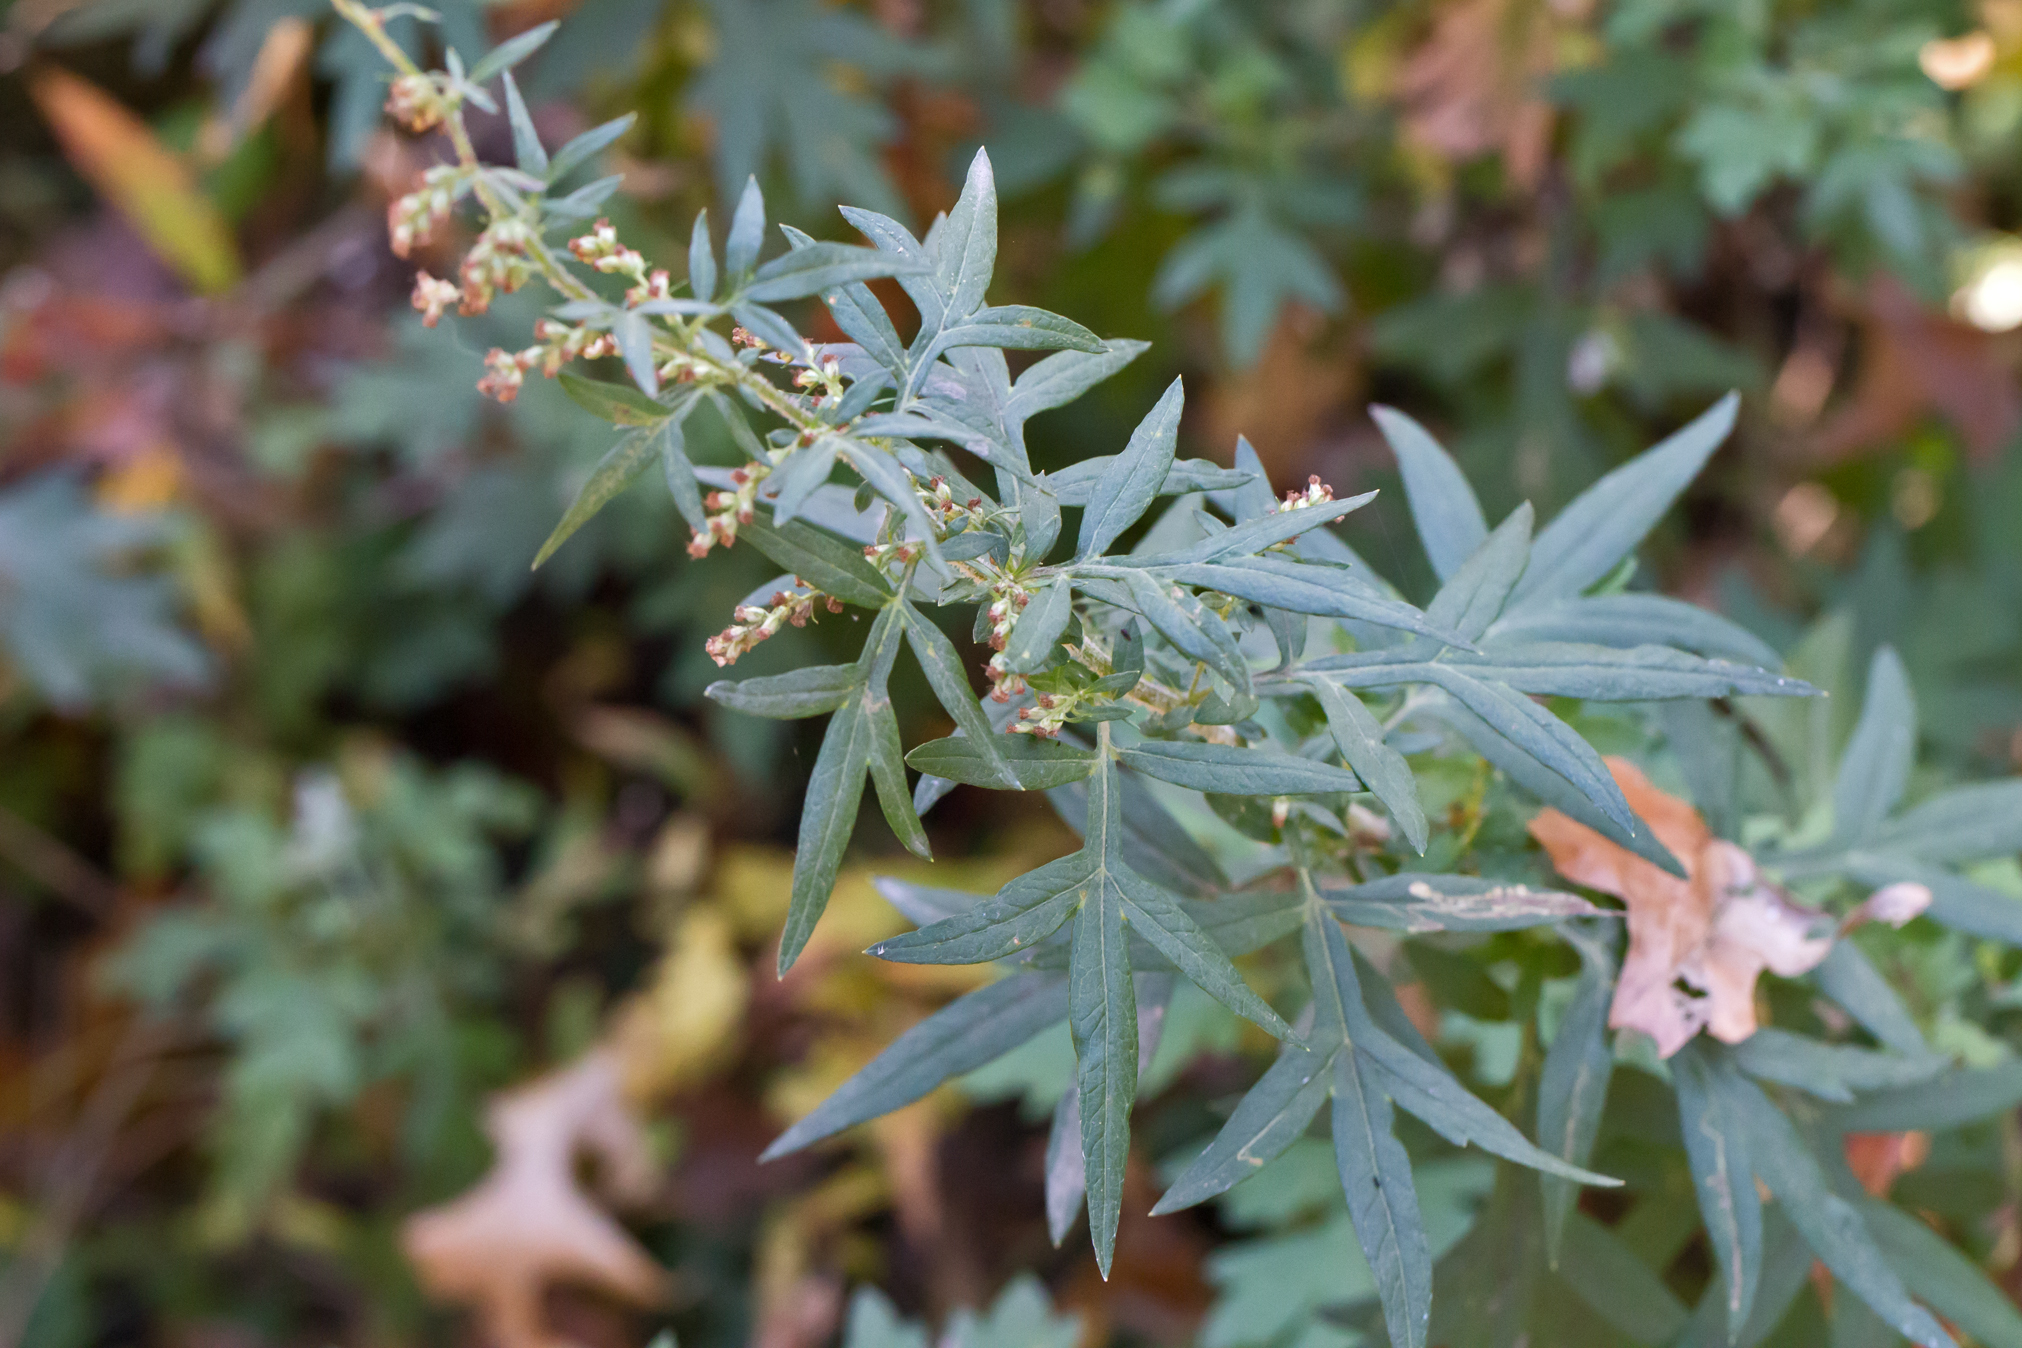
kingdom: Plantae
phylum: Tracheophyta
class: Magnoliopsida
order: Asterales
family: Asteraceae
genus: Artemisia
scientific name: Artemisia vulgaris
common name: Mugwort
